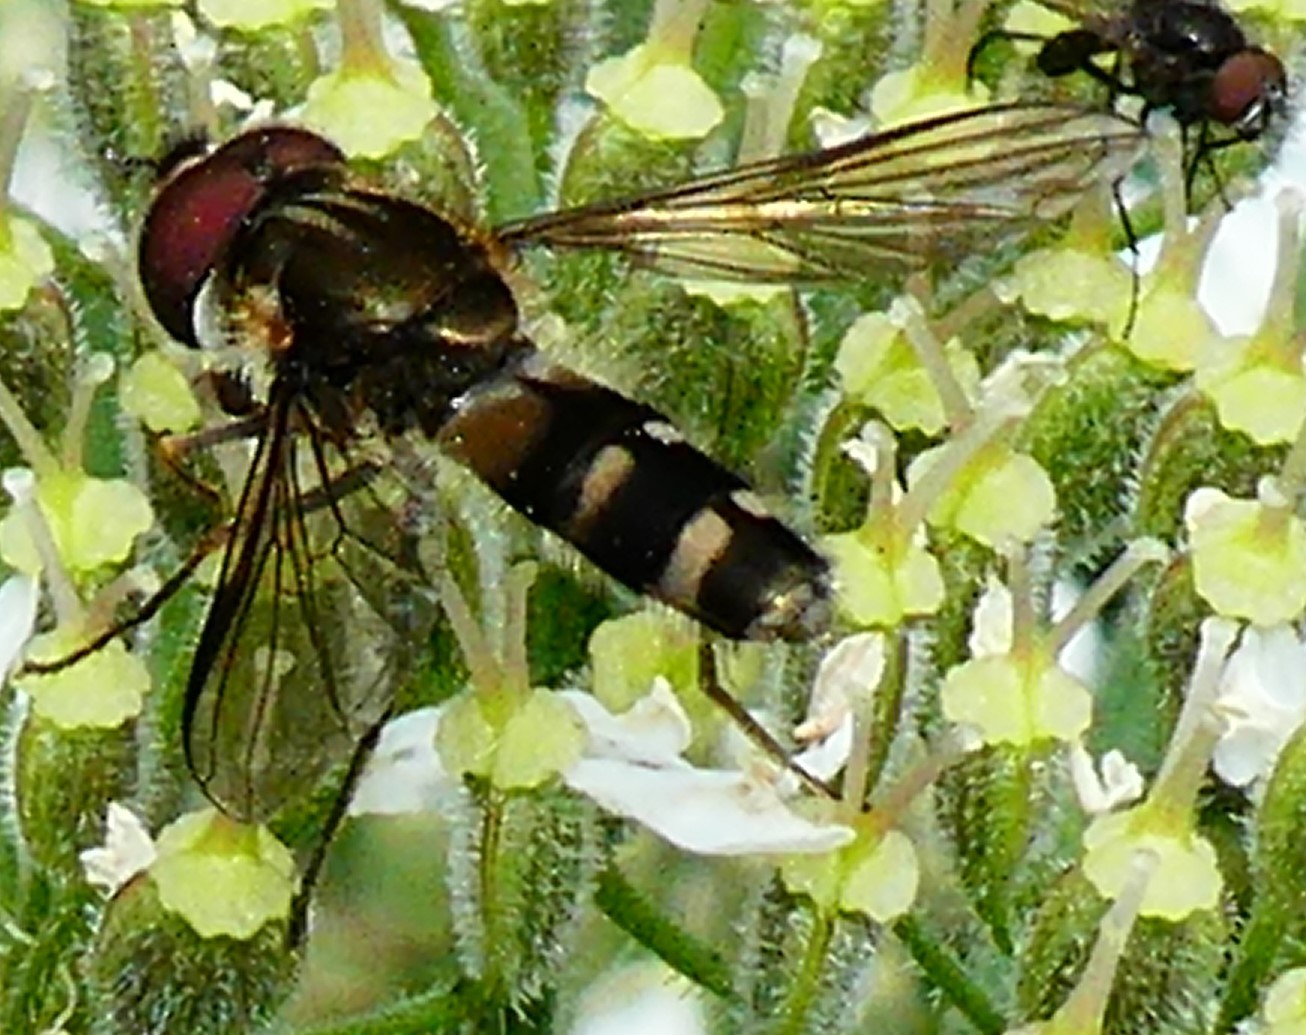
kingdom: Animalia
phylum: Arthropoda
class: Insecta
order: Diptera
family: Syrphidae
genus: Leucozona
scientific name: Leucozona laternaria
